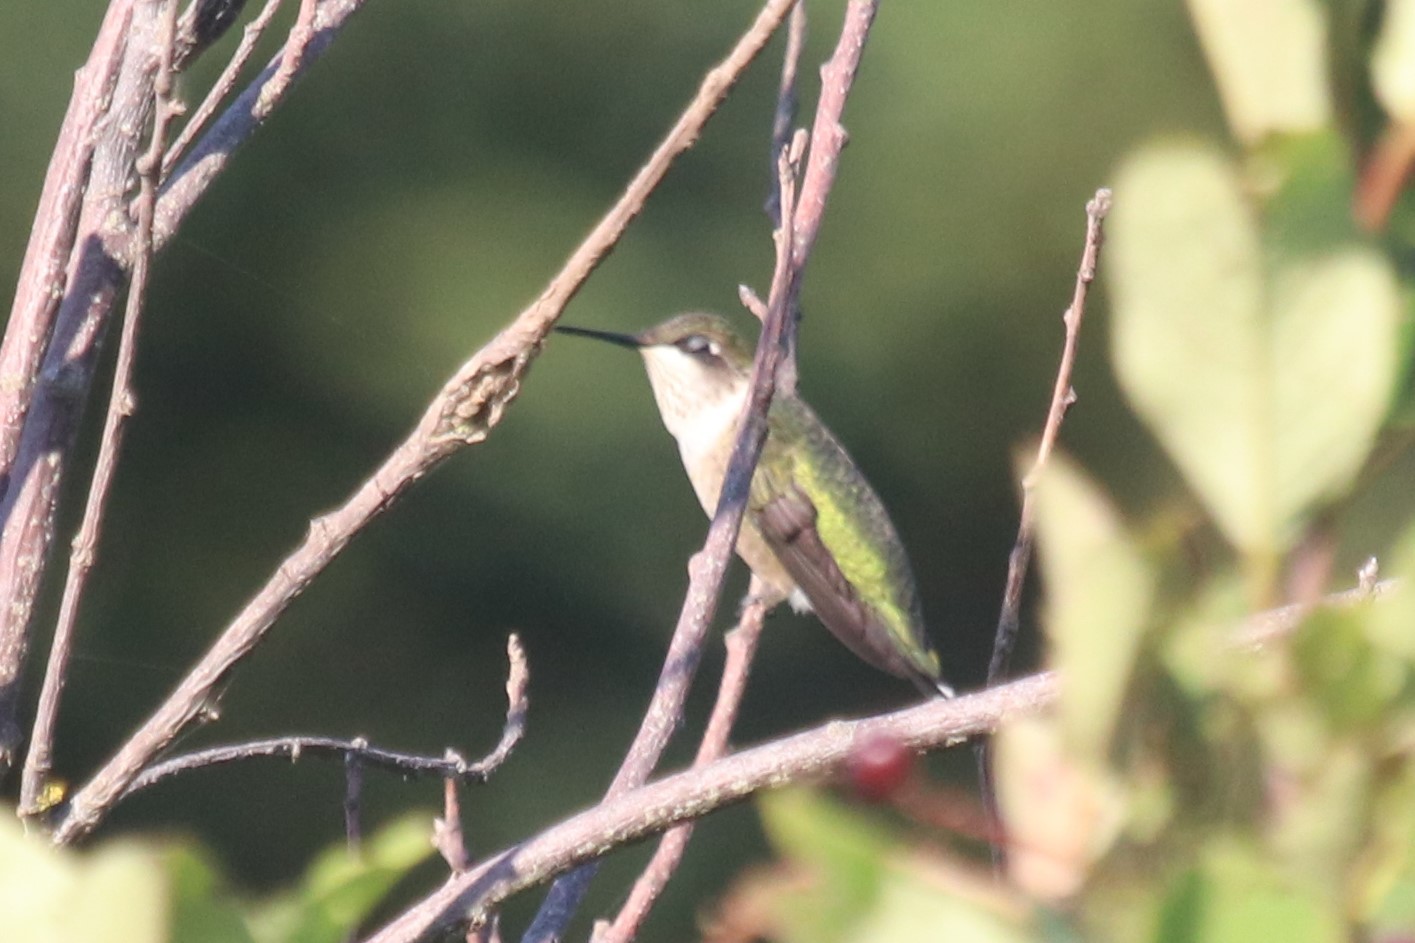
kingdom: Animalia
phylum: Chordata
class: Aves
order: Apodiformes
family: Trochilidae
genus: Archilochus
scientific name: Archilochus colubris
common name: Ruby-throated hummingbird
